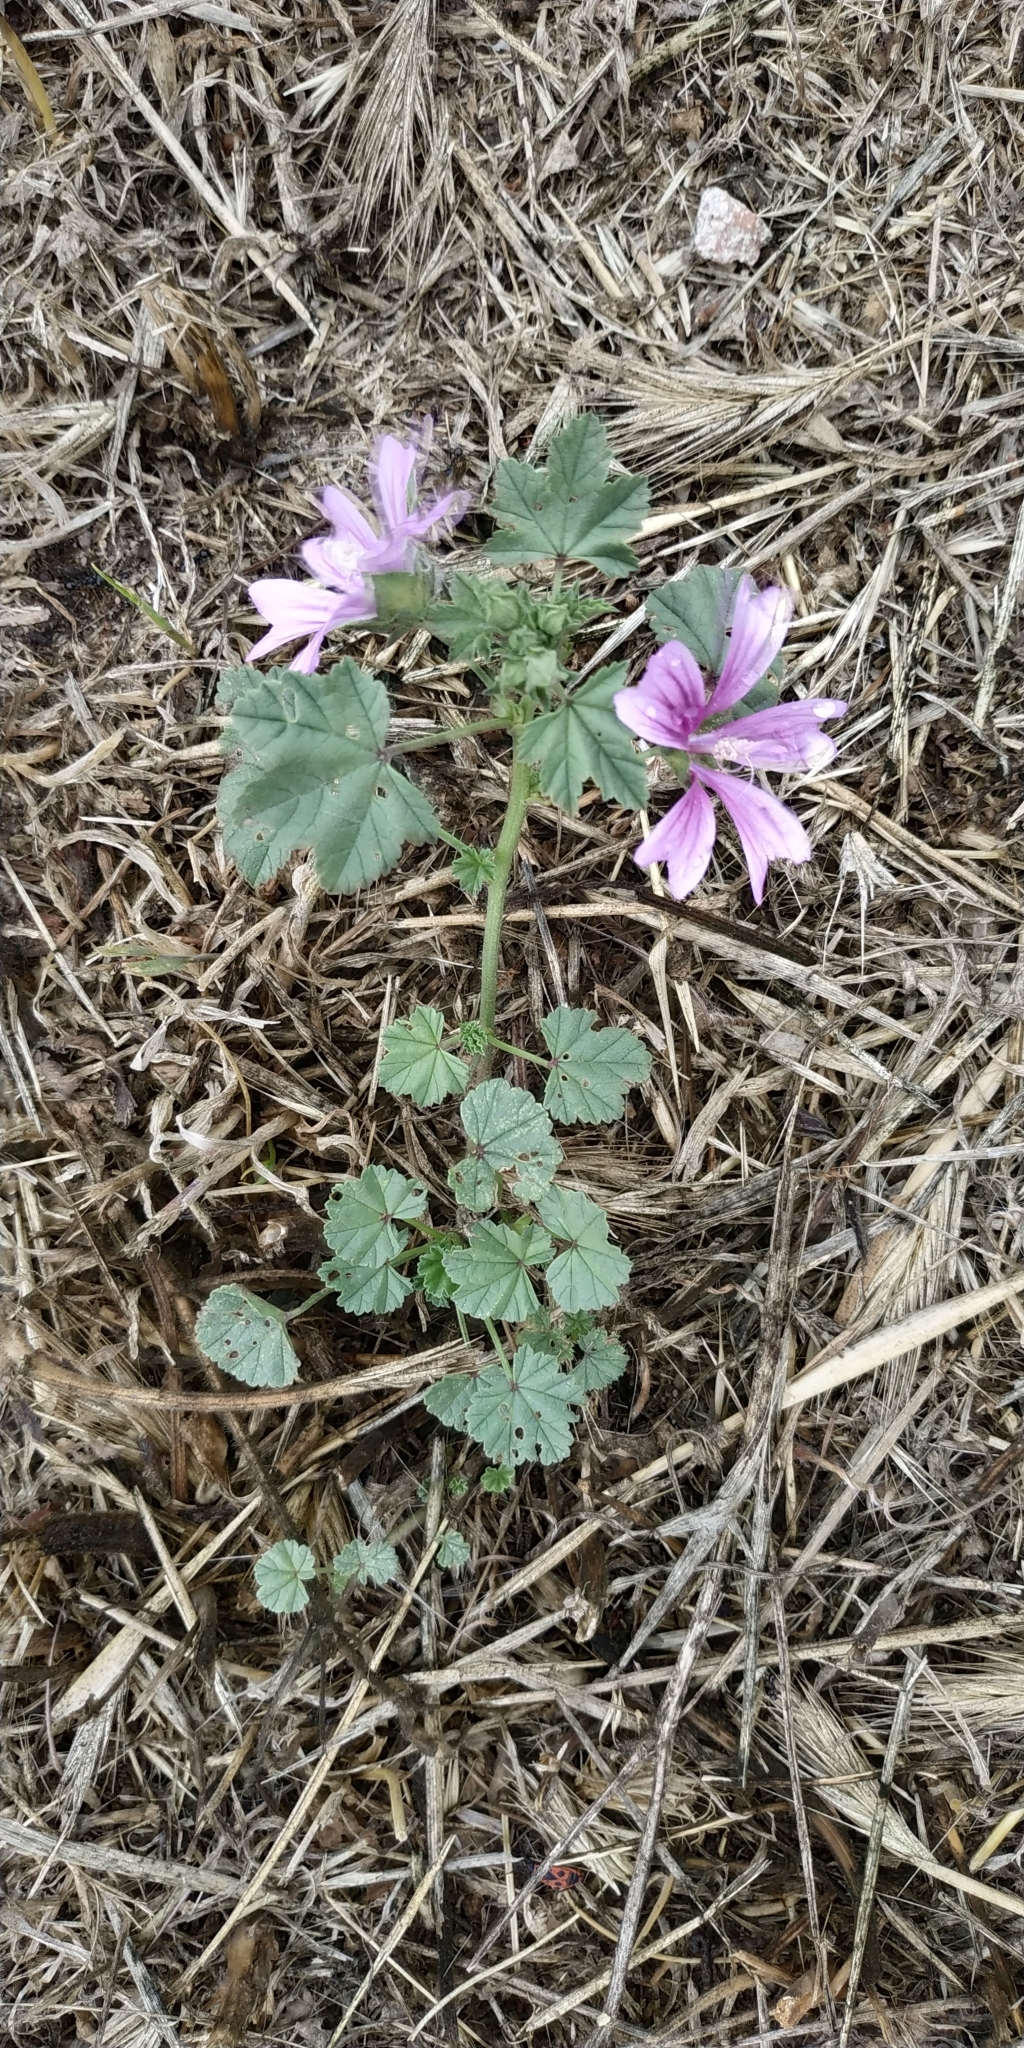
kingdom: Plantae
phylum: Tracheophyta
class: Magnoliopsida
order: Malvales
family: Malvaceae
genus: Malva
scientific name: Malva sylvestris
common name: Common mallow
